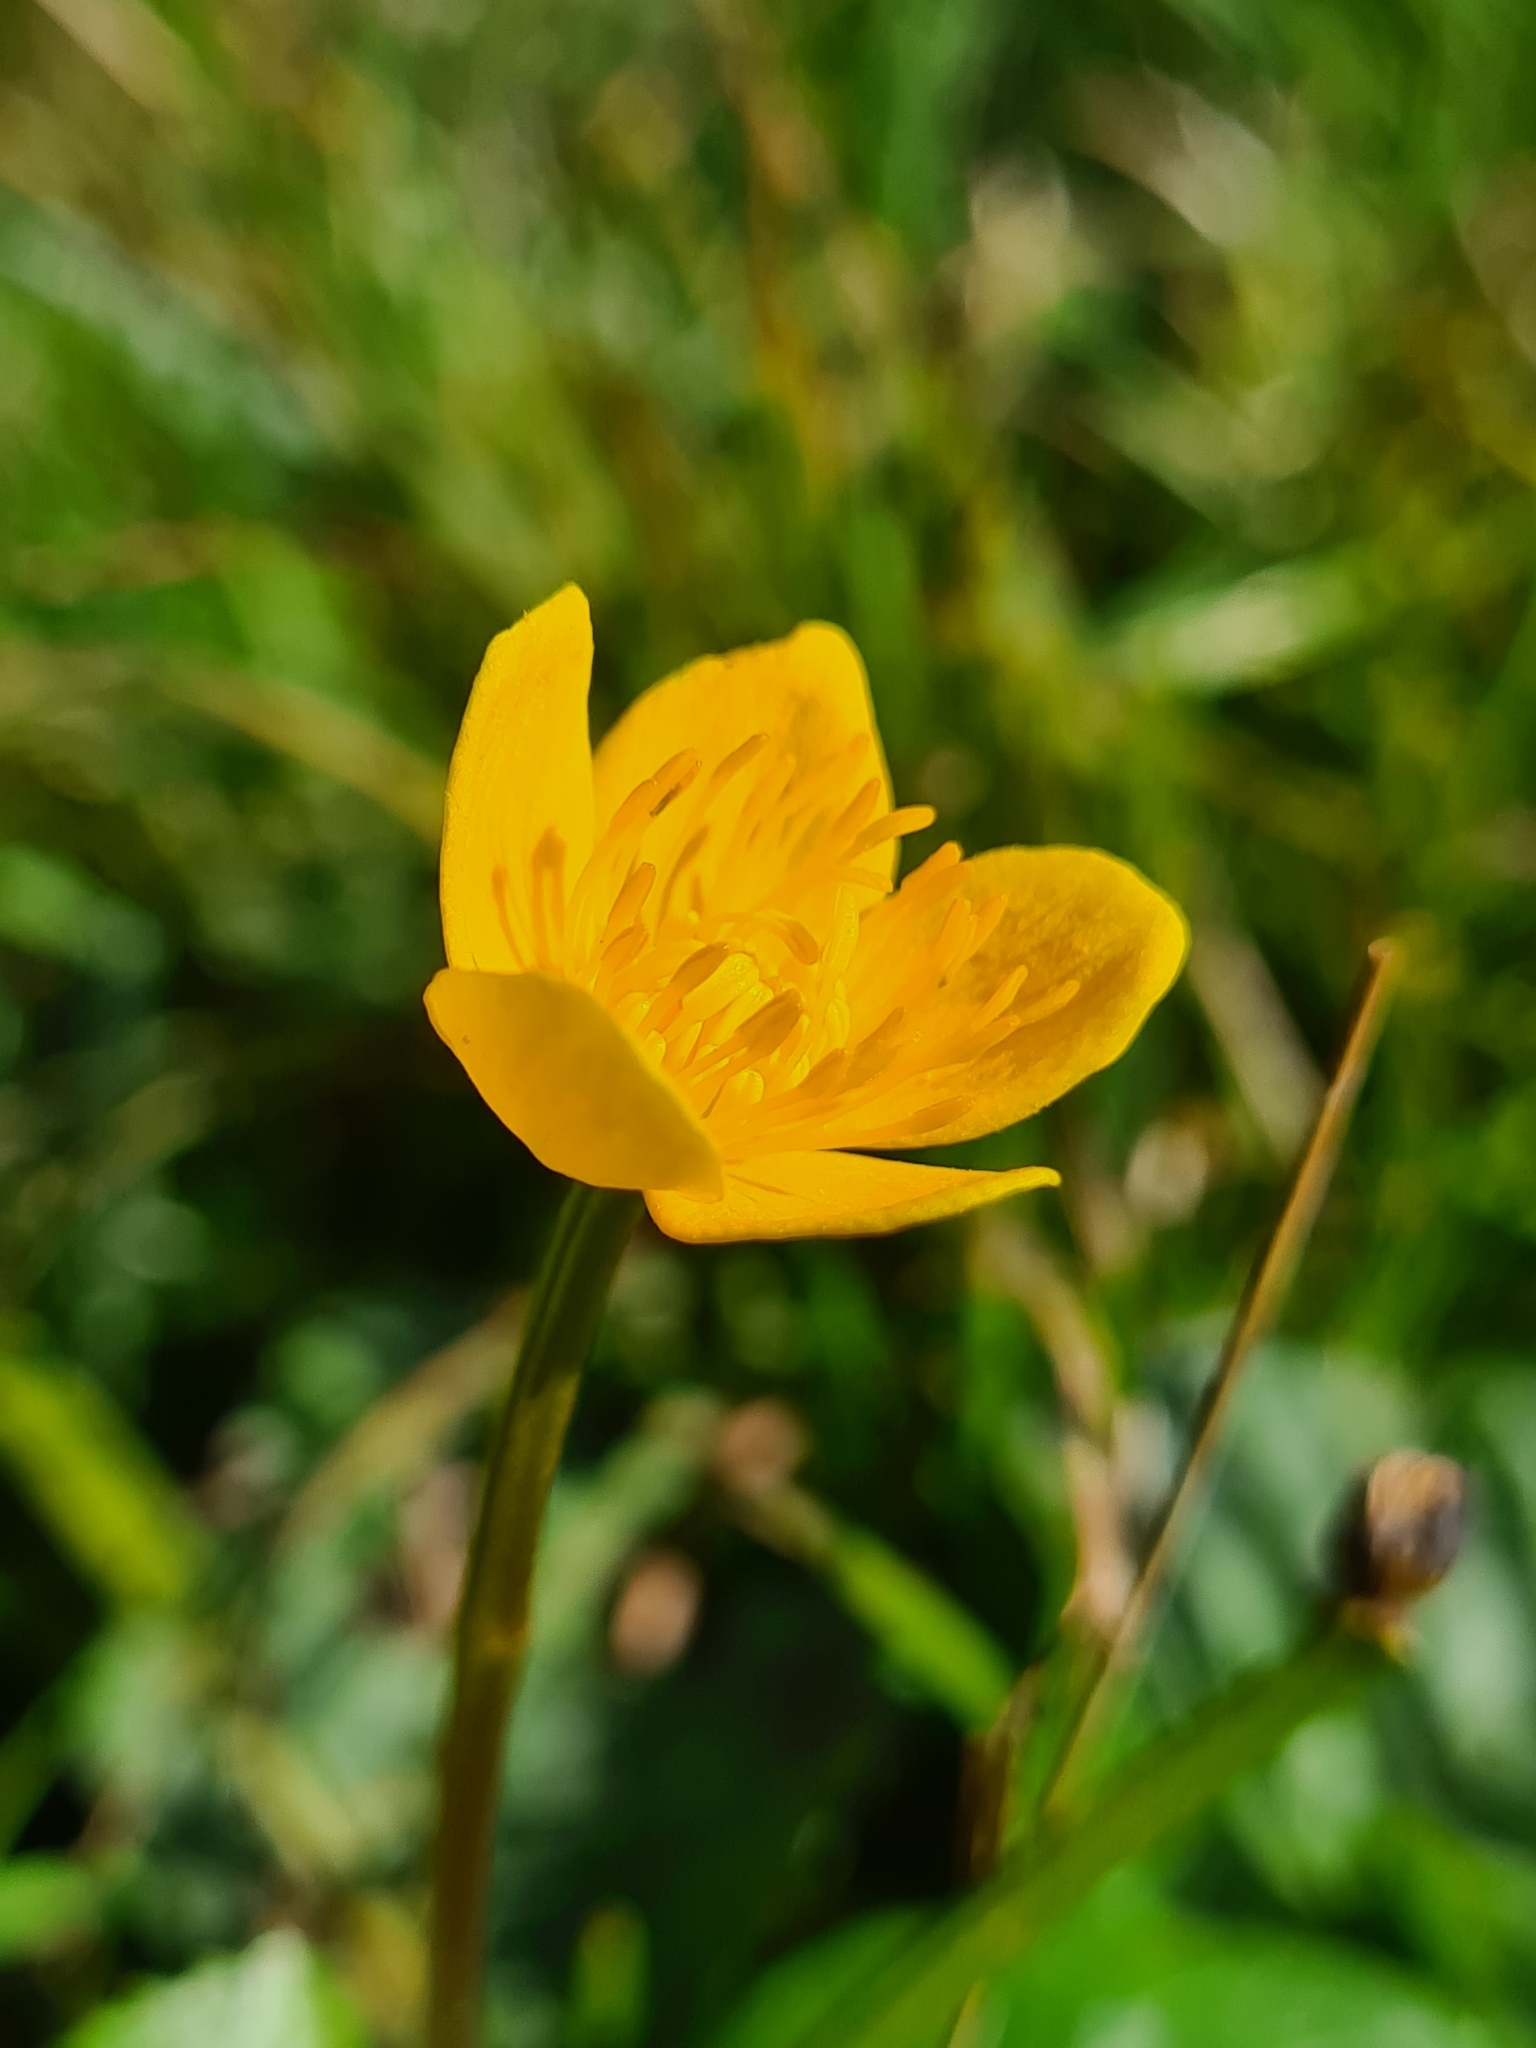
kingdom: Plantae
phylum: Tracheophyta
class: Magnoliopsida
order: Ranunculales
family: Ranunculaceae
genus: Caltha
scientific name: Caltha palustris
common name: Marsh marigold
